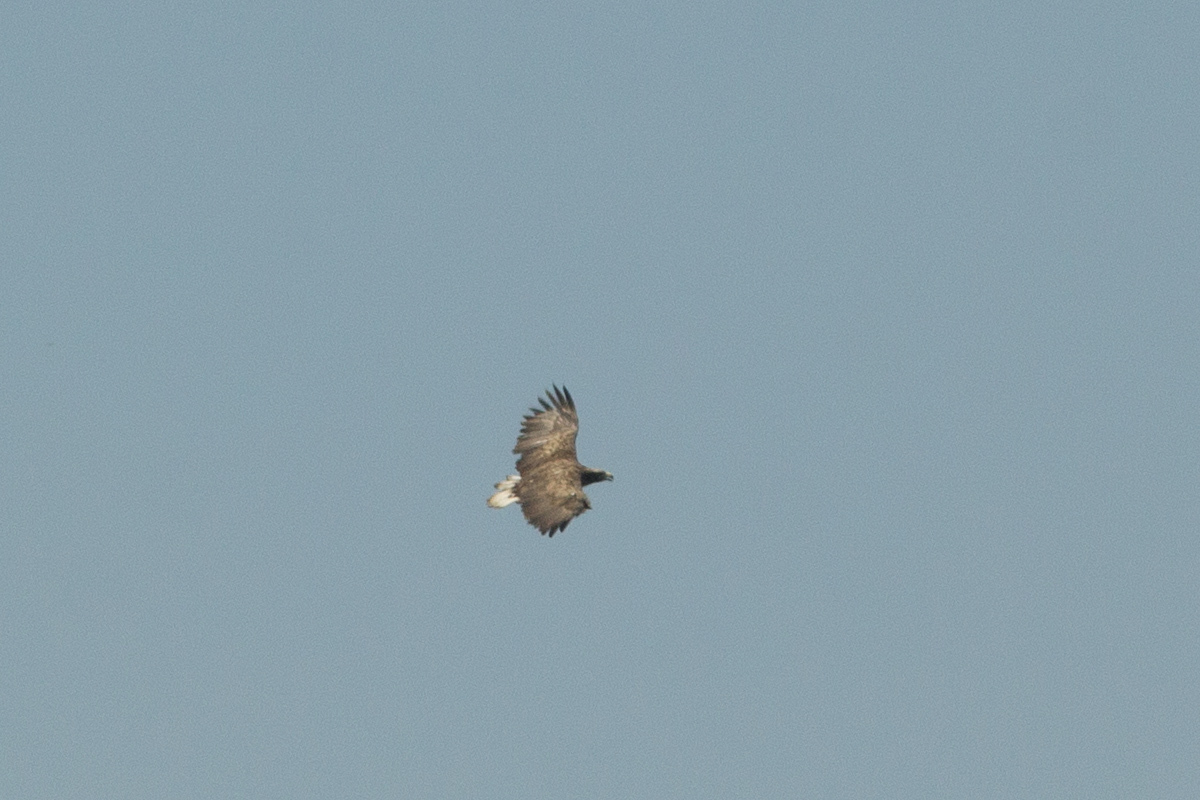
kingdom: Animalia
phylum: Chordata
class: Aves
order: Accipitriformes
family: Accipitridae
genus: Haliaeetus
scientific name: Haliaeetus albicilla
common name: White-tailed eagle
